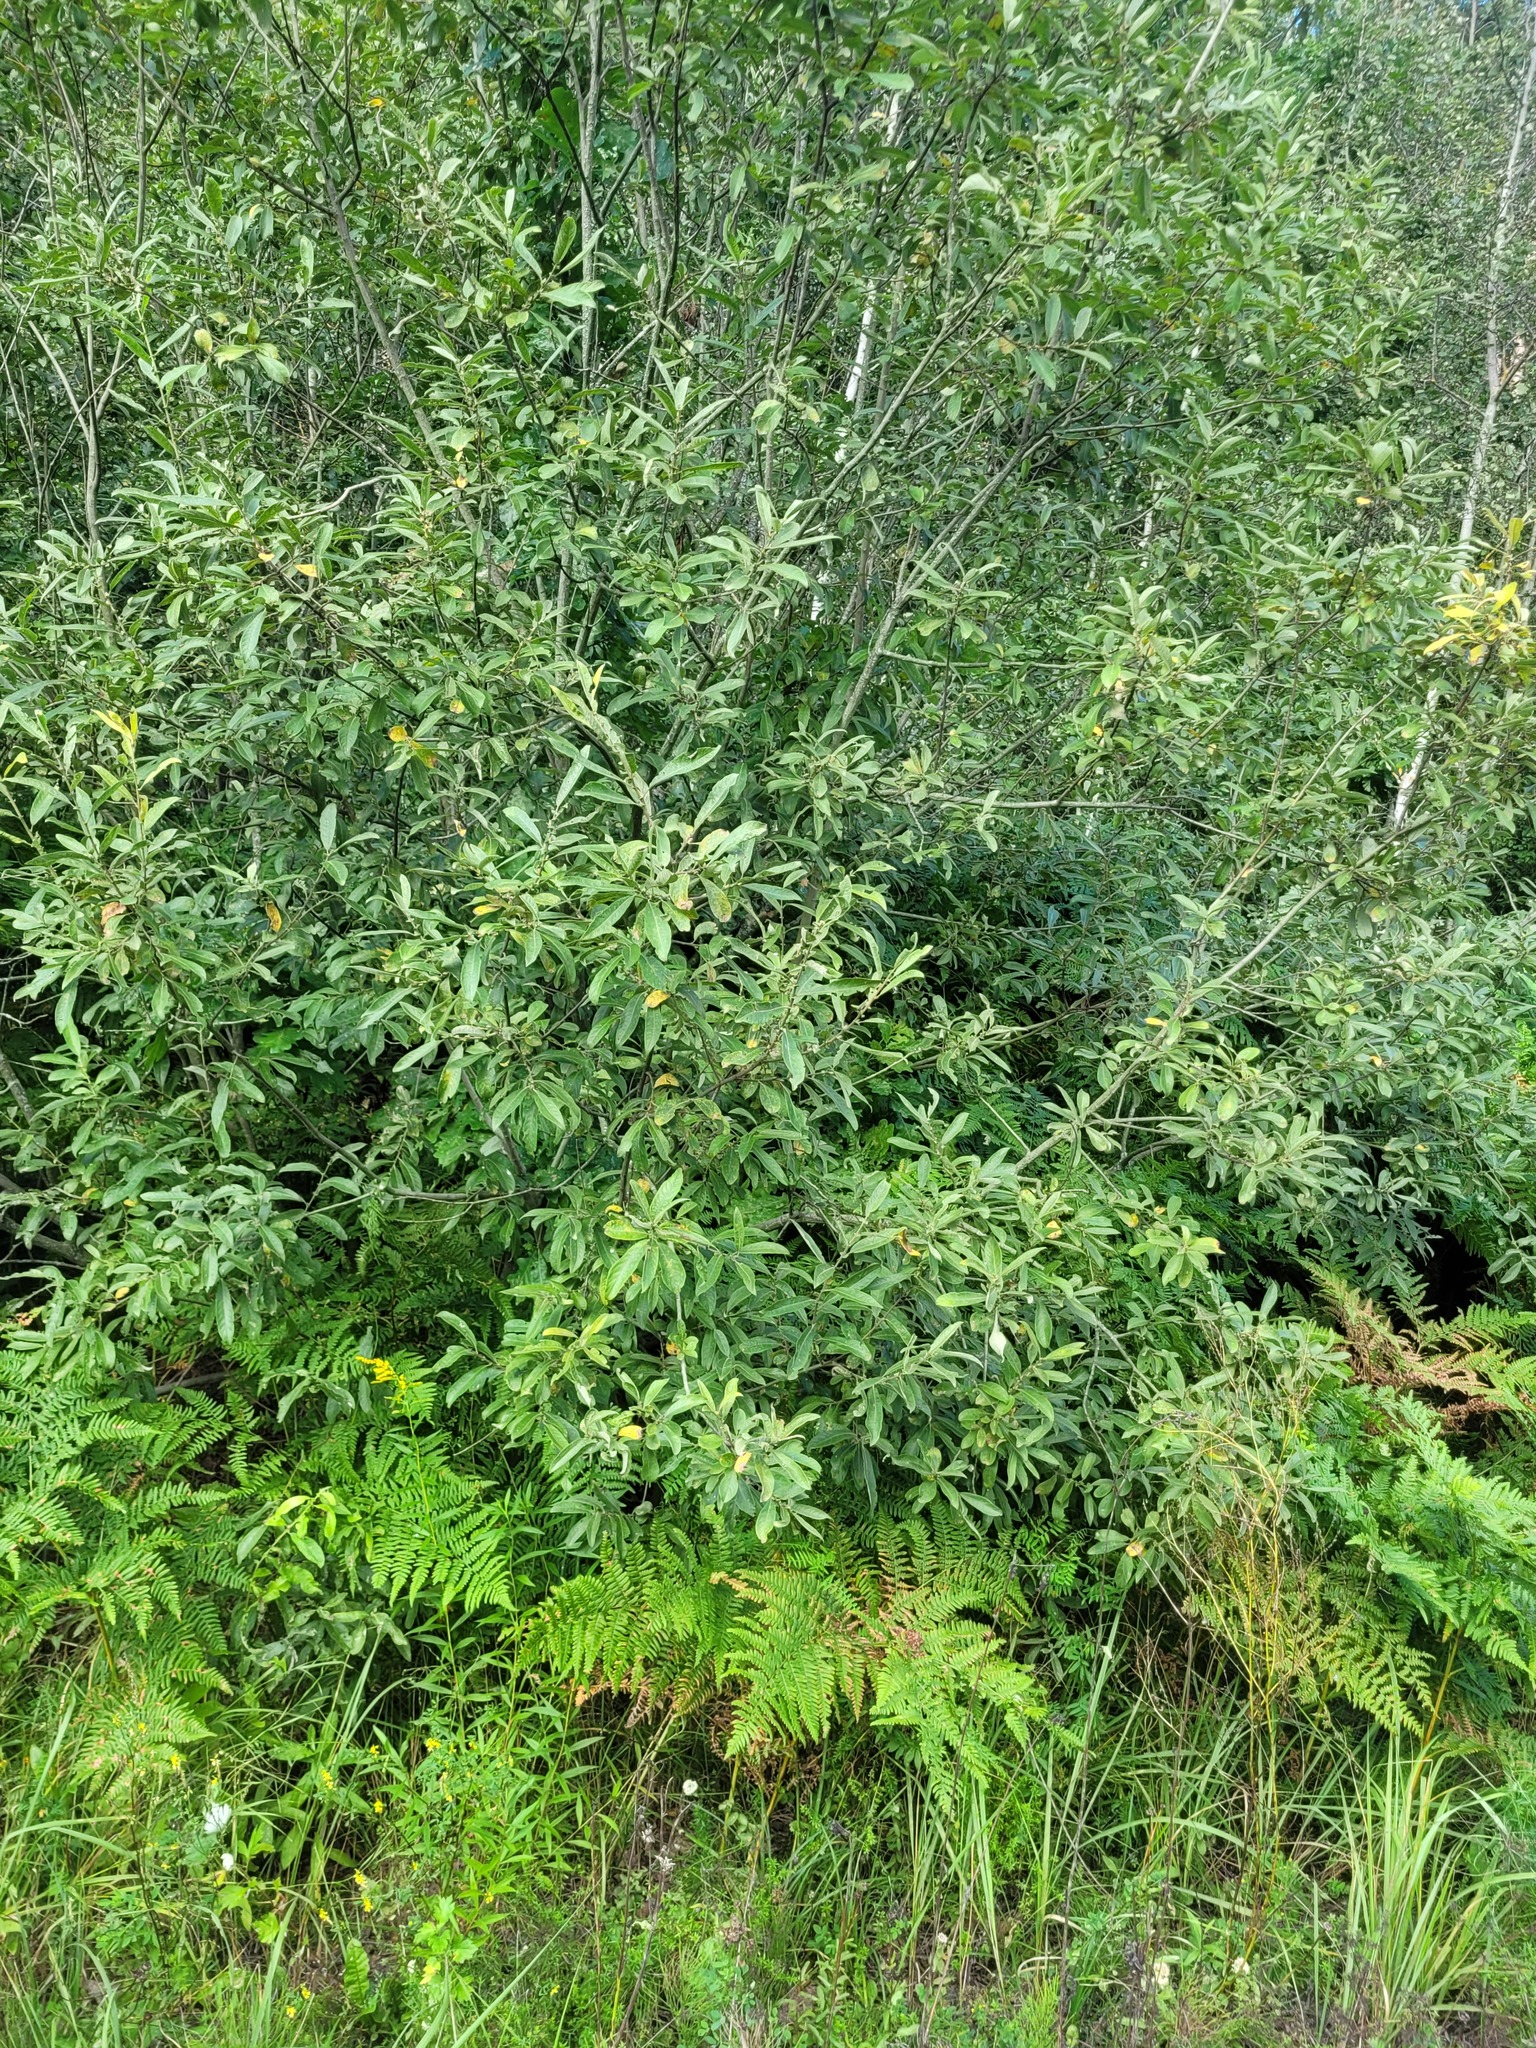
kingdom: Plantae
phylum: Tracheophyta
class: Magnoliopsida
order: Malpighiales
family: Salicaceae
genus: Salix
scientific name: Salix cinerea
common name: Common sallow
